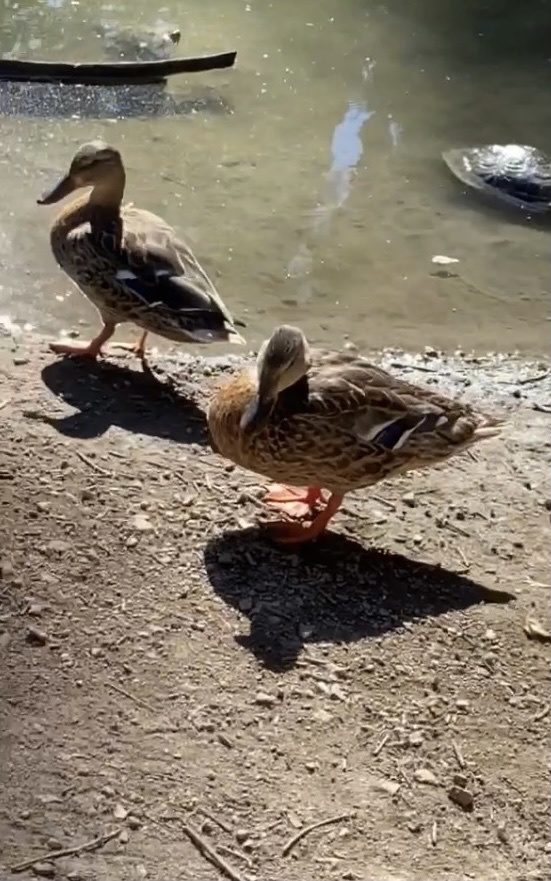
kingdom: Animalia
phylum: Chordata
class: Aves
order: Anseriformes
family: Anatidae
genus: Anas
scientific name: Anas platyrhynchos
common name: Mallard
